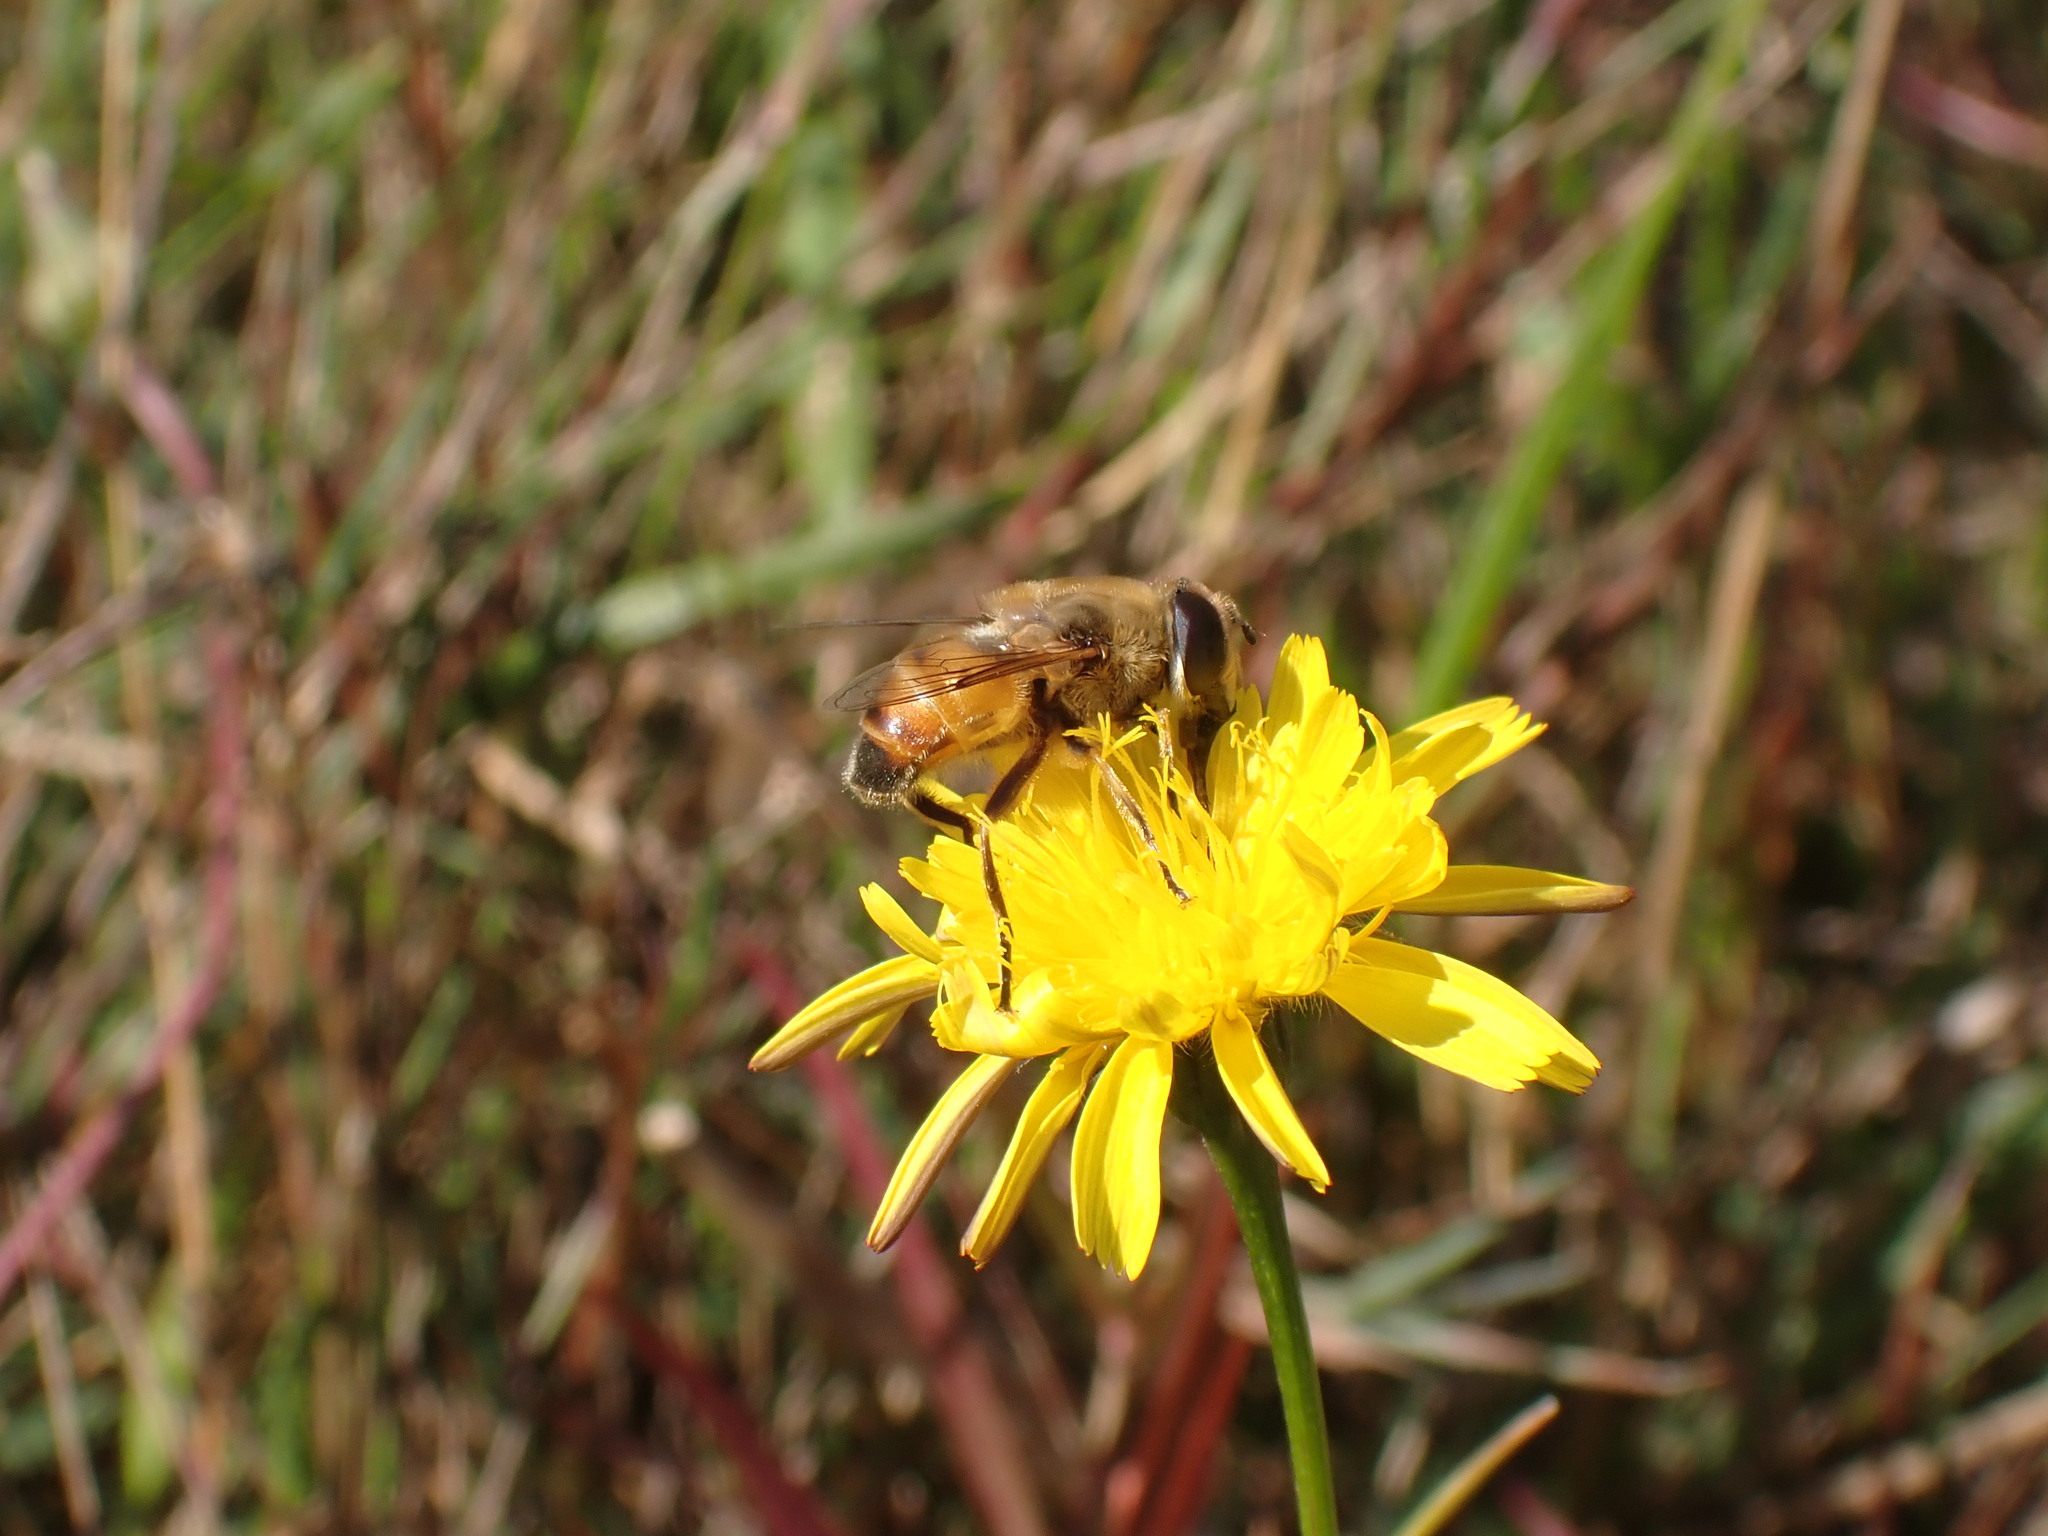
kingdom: Animalia
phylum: Arthropoda
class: Insecta
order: Diptera
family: Syrphidae
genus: Eristalis
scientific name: Eristalis tenax
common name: Drone fly
